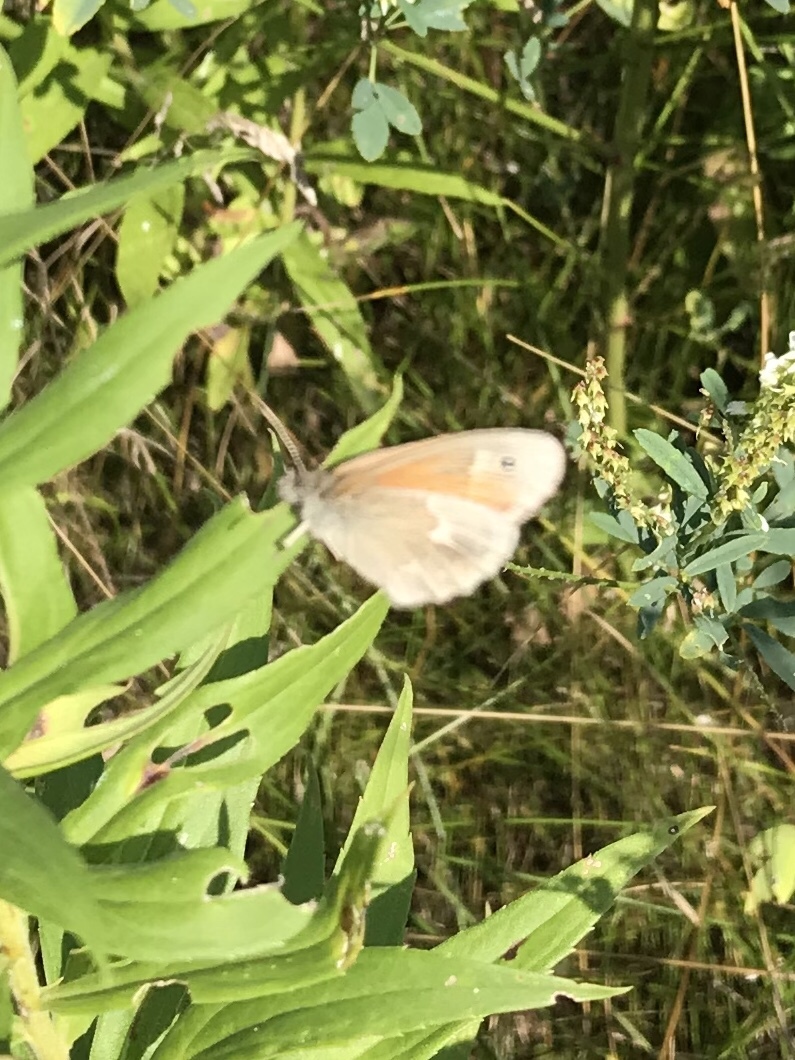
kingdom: Animalia
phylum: Arthropoda
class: Insecta
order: Lepidoptera
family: Nymphalidae
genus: Coenonympha
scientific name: Coenonympha california
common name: Common ringlet
